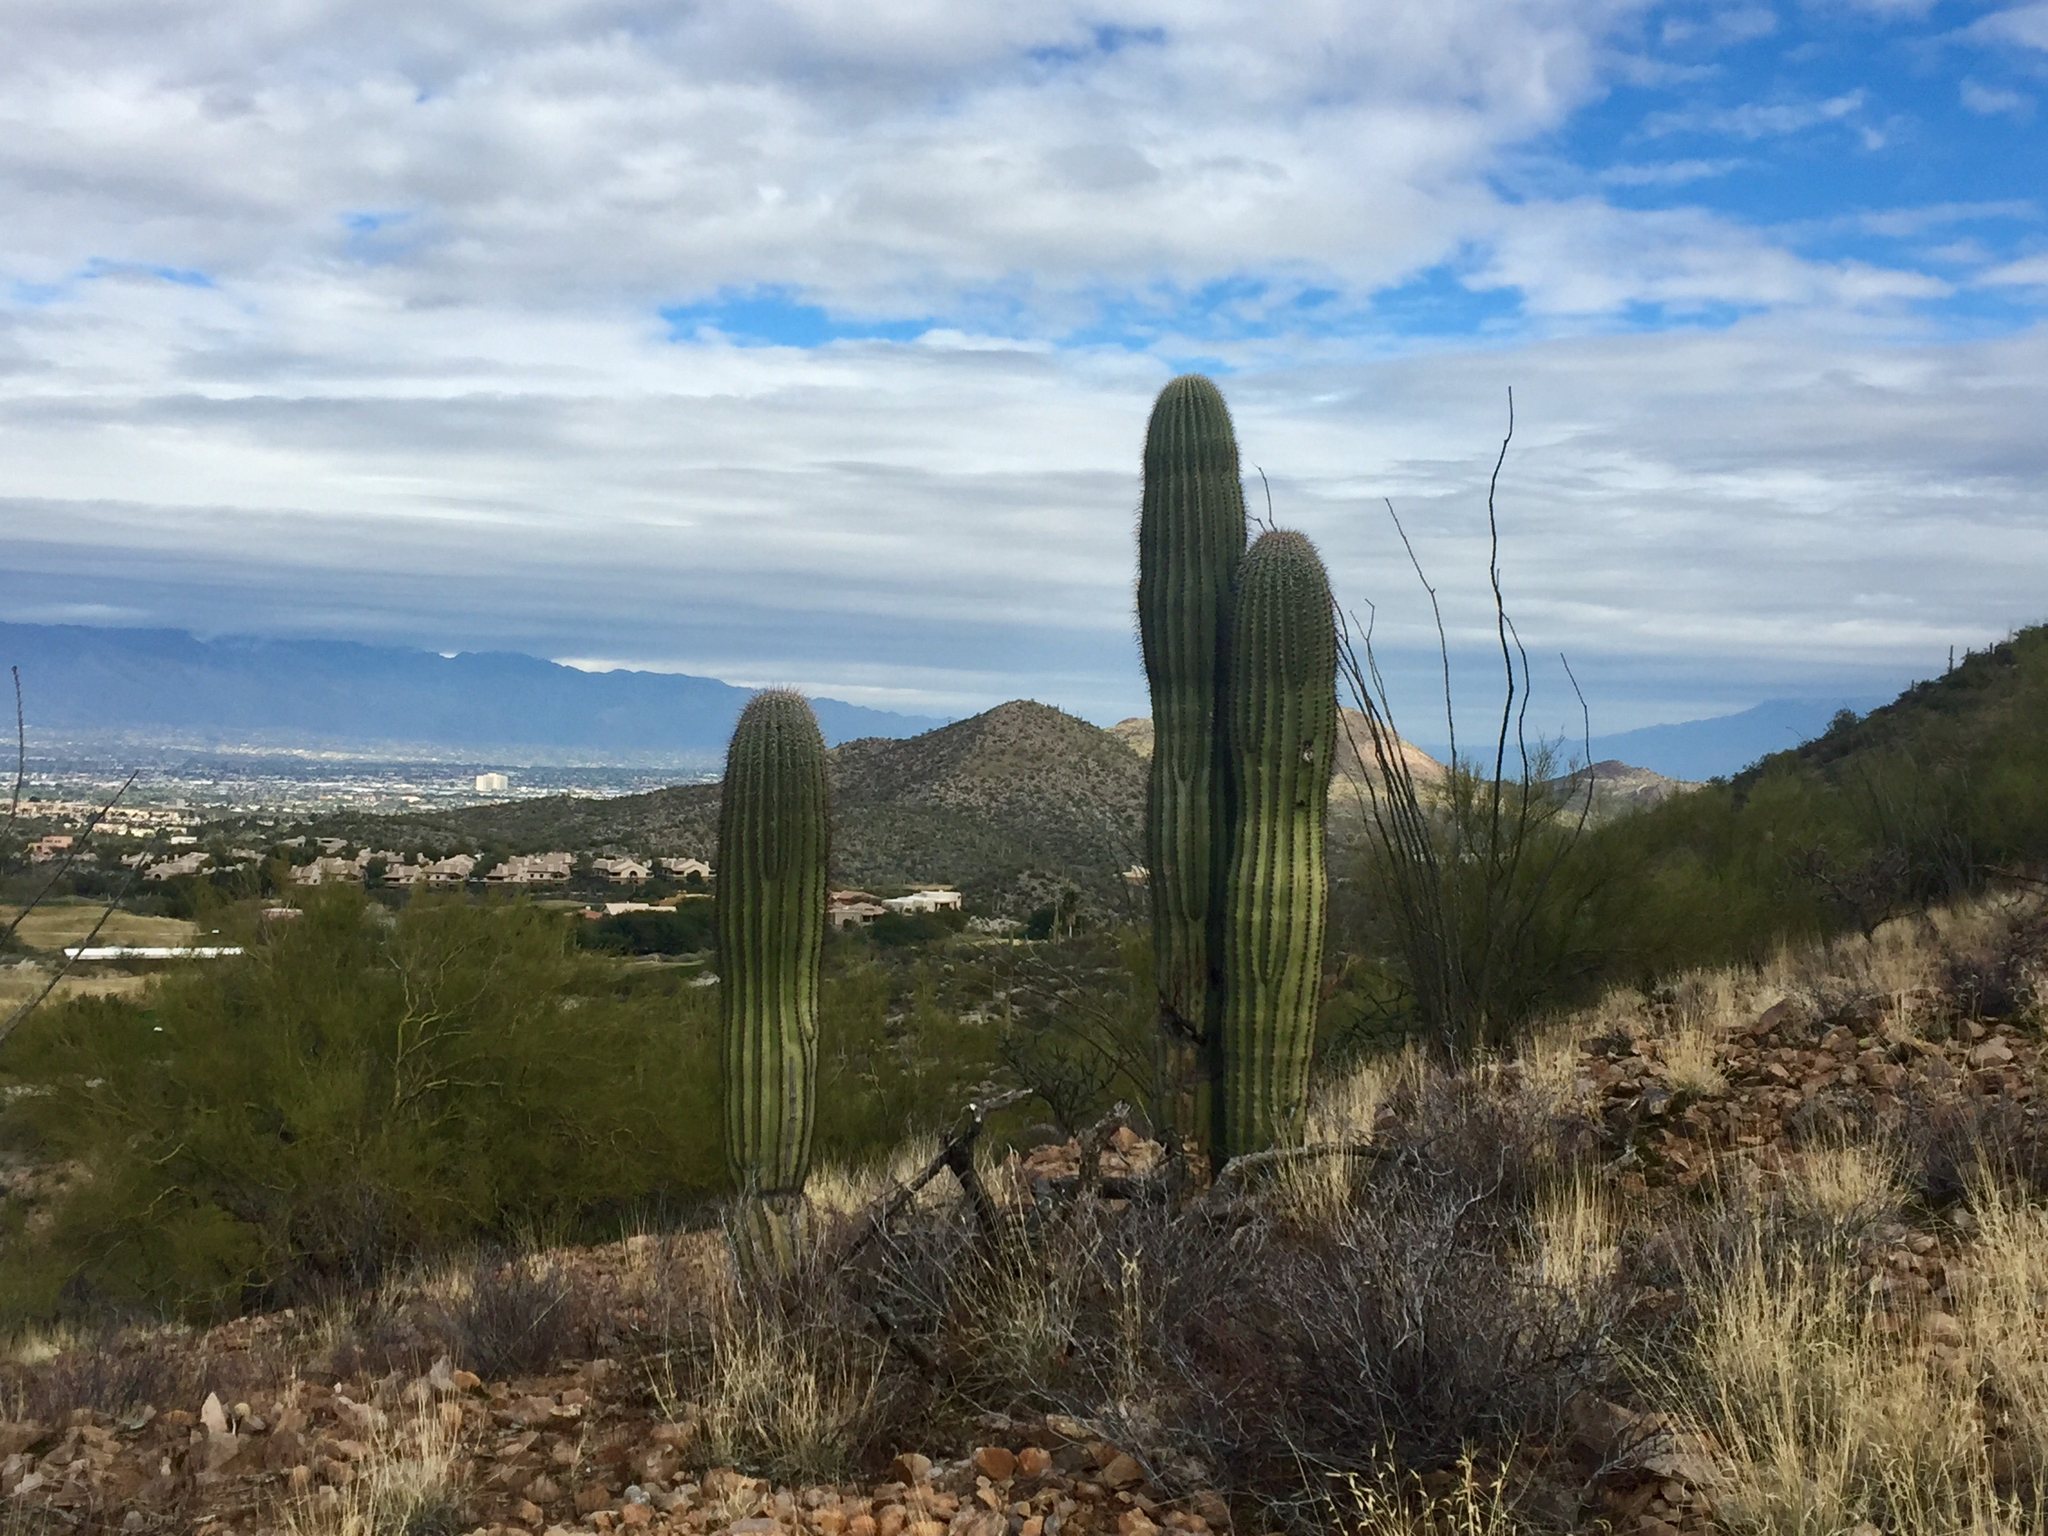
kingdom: Plantae
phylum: Tracheophyta
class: Magnoliopsida
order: Caryophyllales
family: Cactaceae
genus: Carnegiea
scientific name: Carnegiea gigantea
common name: Saguaro
